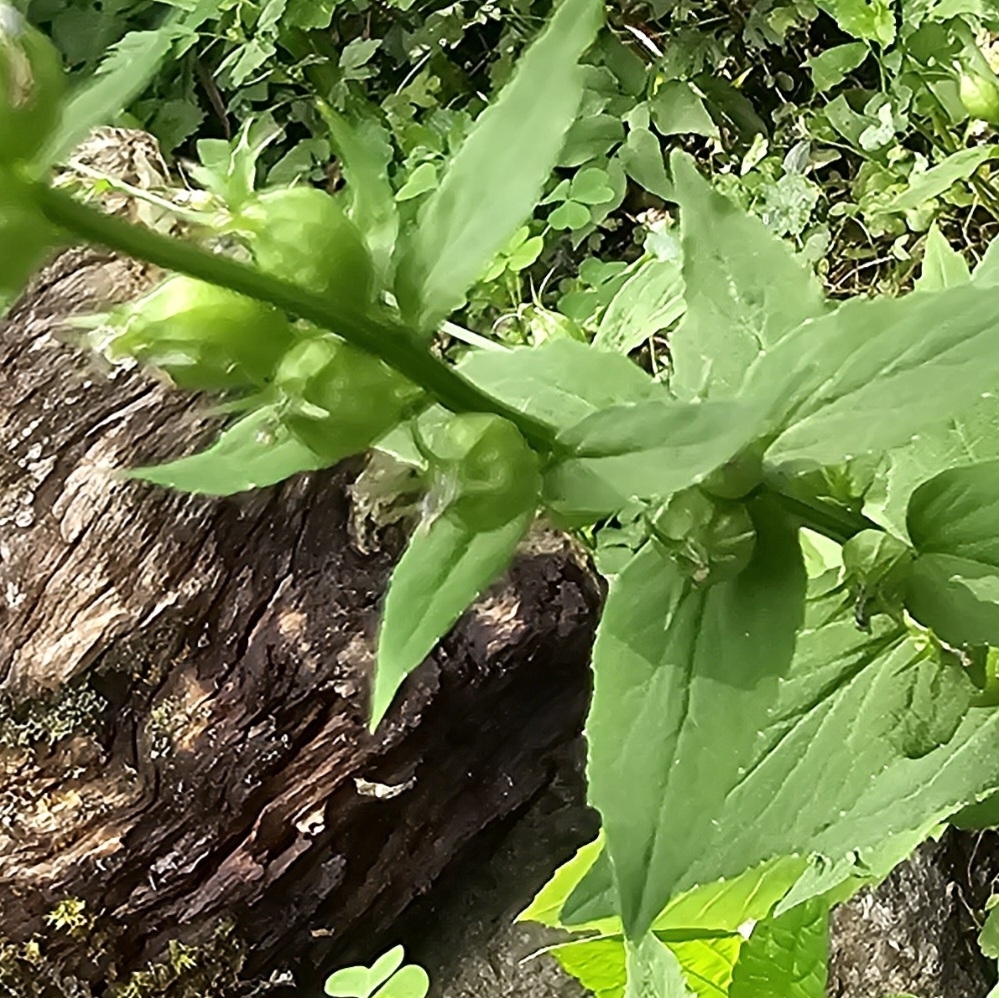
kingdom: Plantae
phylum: Tracheophyta
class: Magnoliopsida
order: Asterales
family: Campanulaceae
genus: Lobelia
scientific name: Lobelia inflata
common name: Indian tobacco
